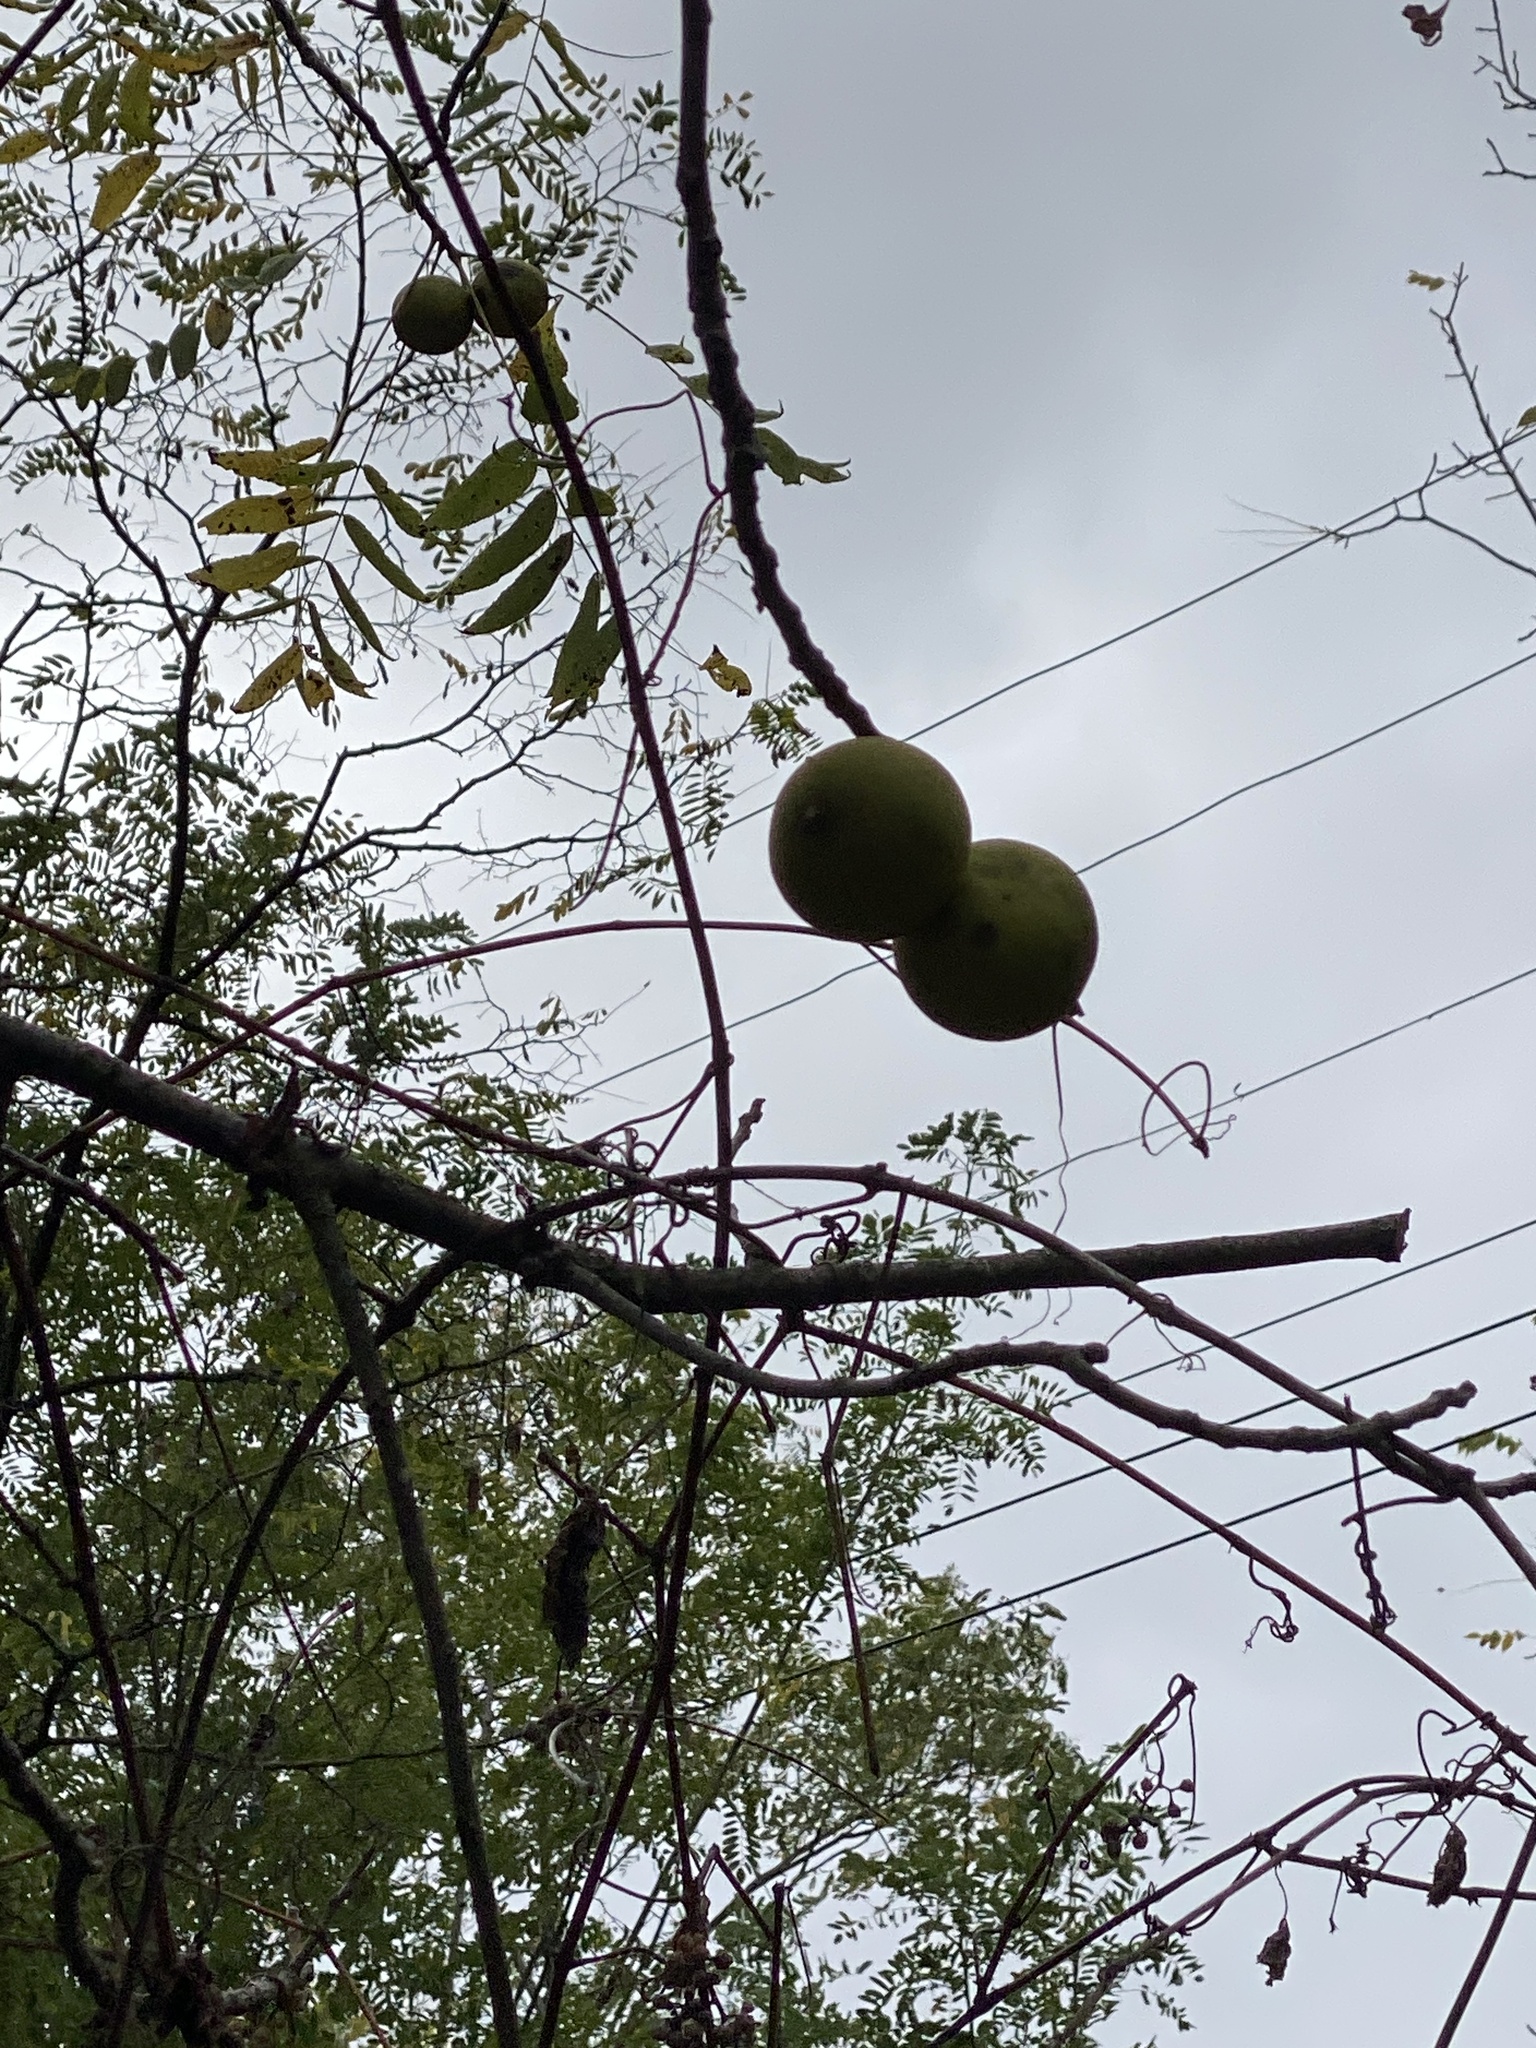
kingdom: Plantae
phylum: Tracheophyta
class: Magnoliopsida
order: Fagales
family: Juglandaceae
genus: Juglans
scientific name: Juglans nigra
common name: Black walnut
